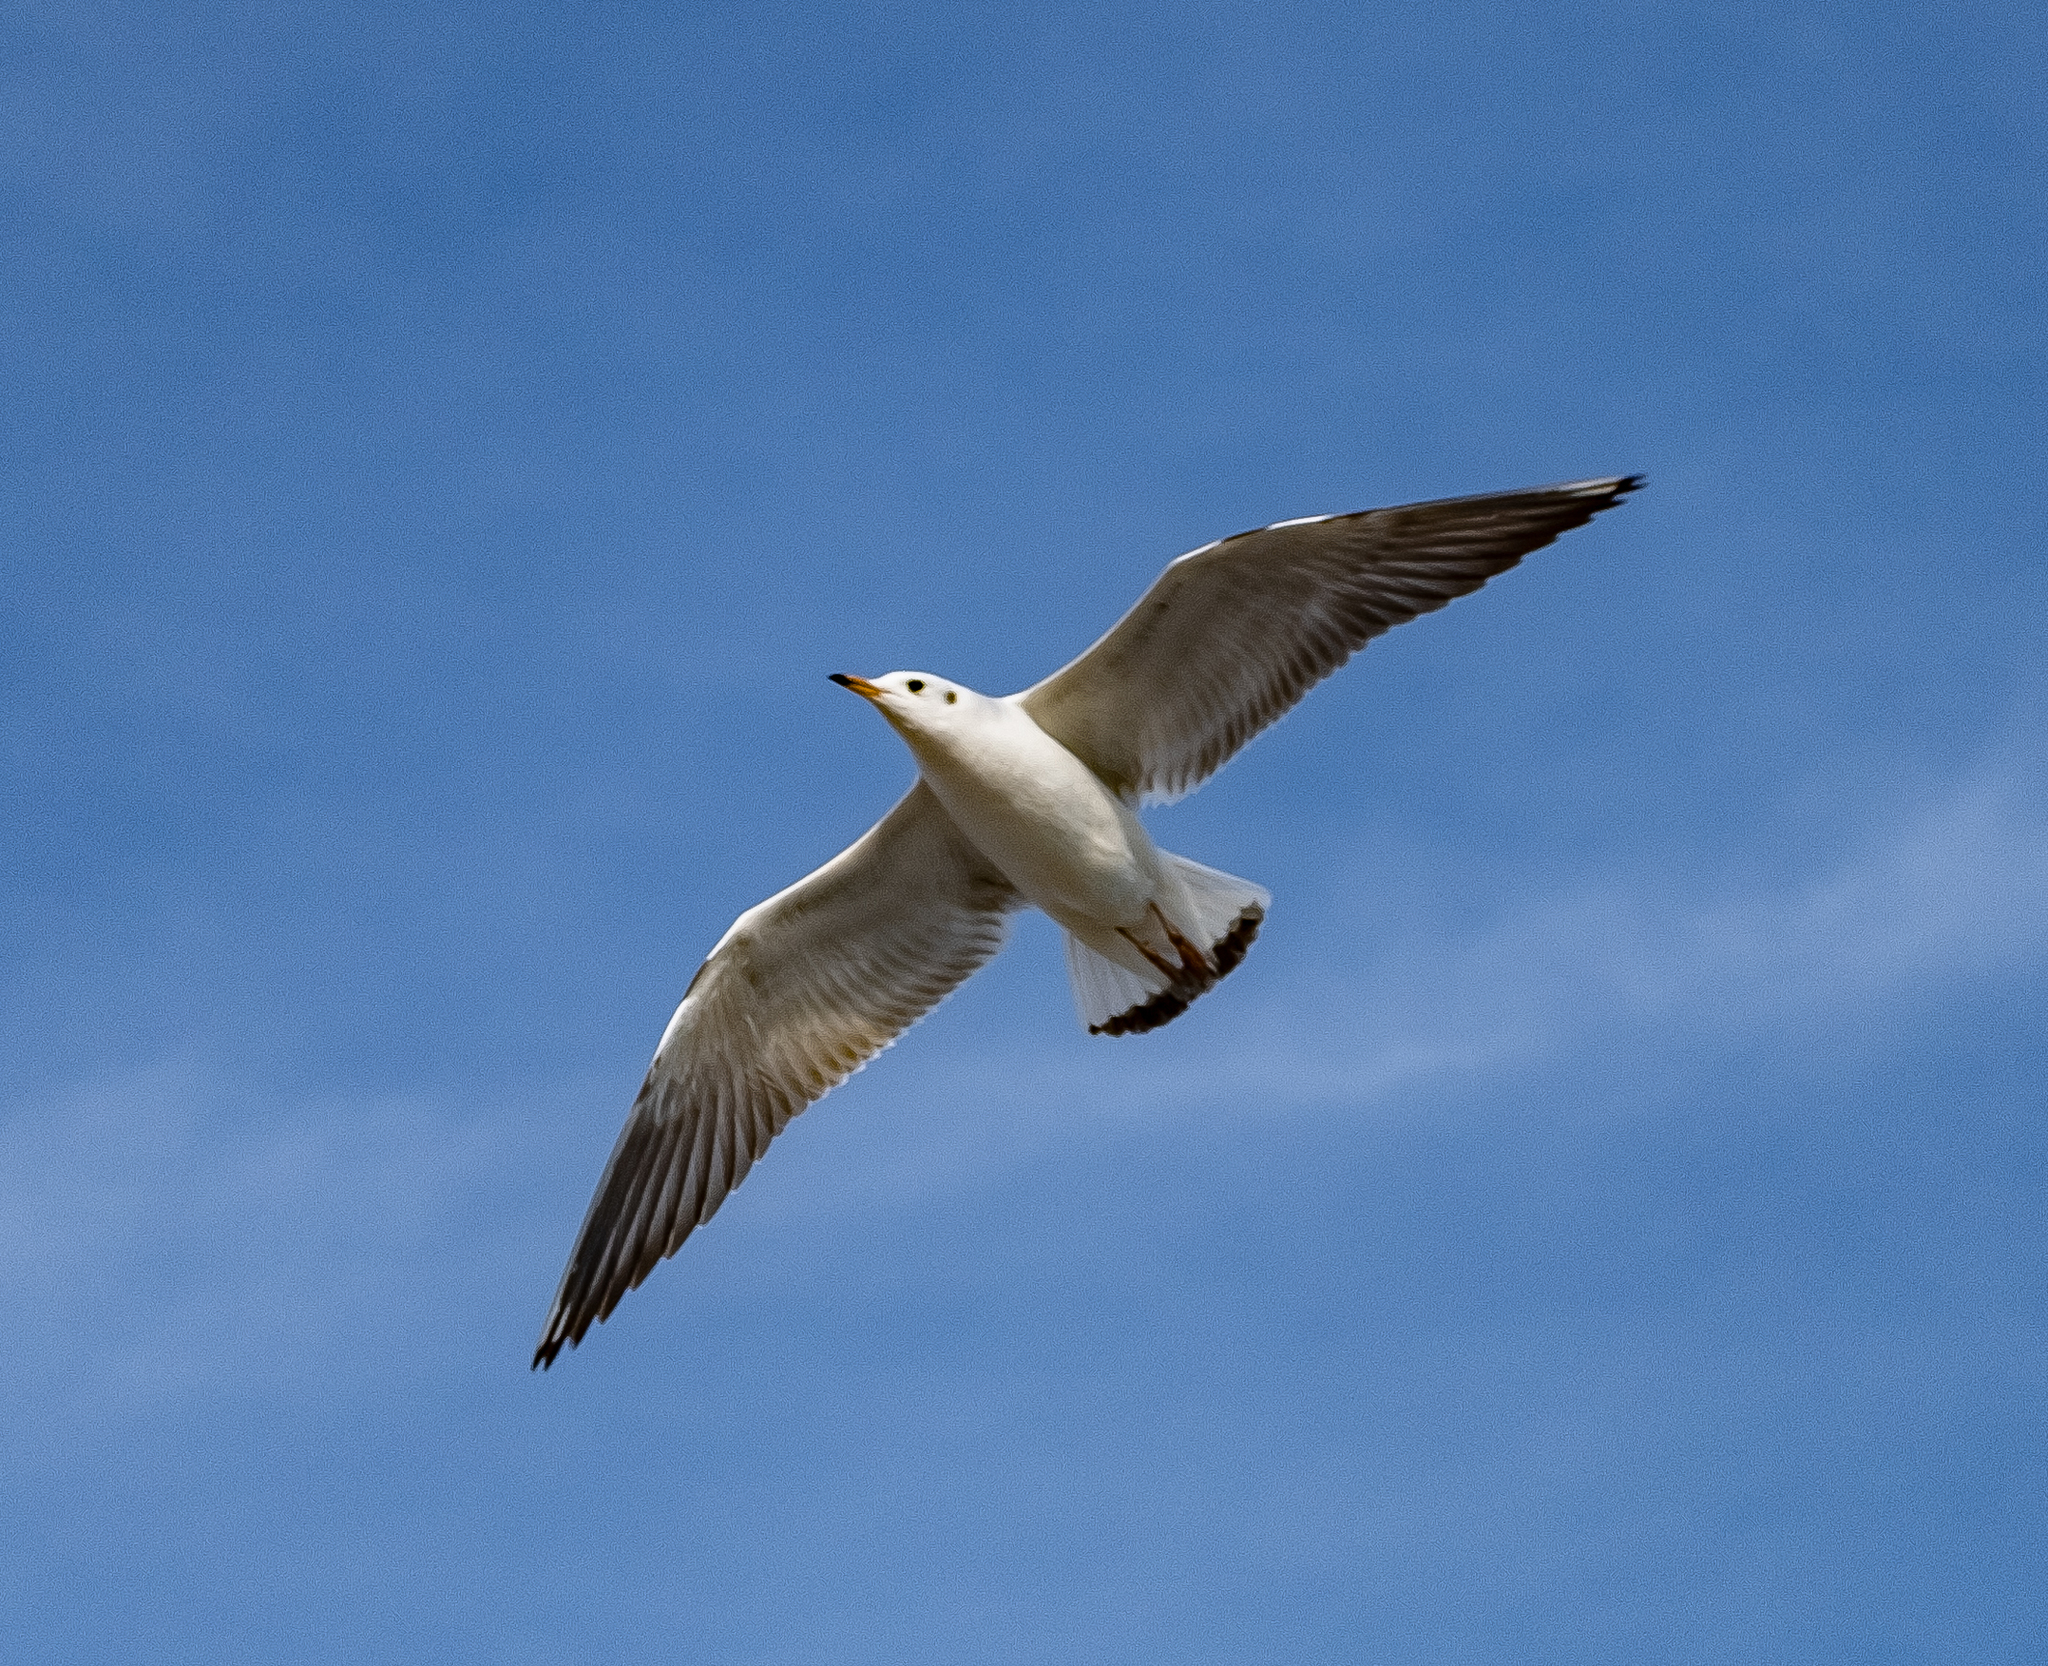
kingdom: Animalia
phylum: Chordata
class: Aves
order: Charadriiformes
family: Laridae
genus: Chroicocephalus
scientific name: Chroicocephalus ridibundus
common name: Black-headed gull
